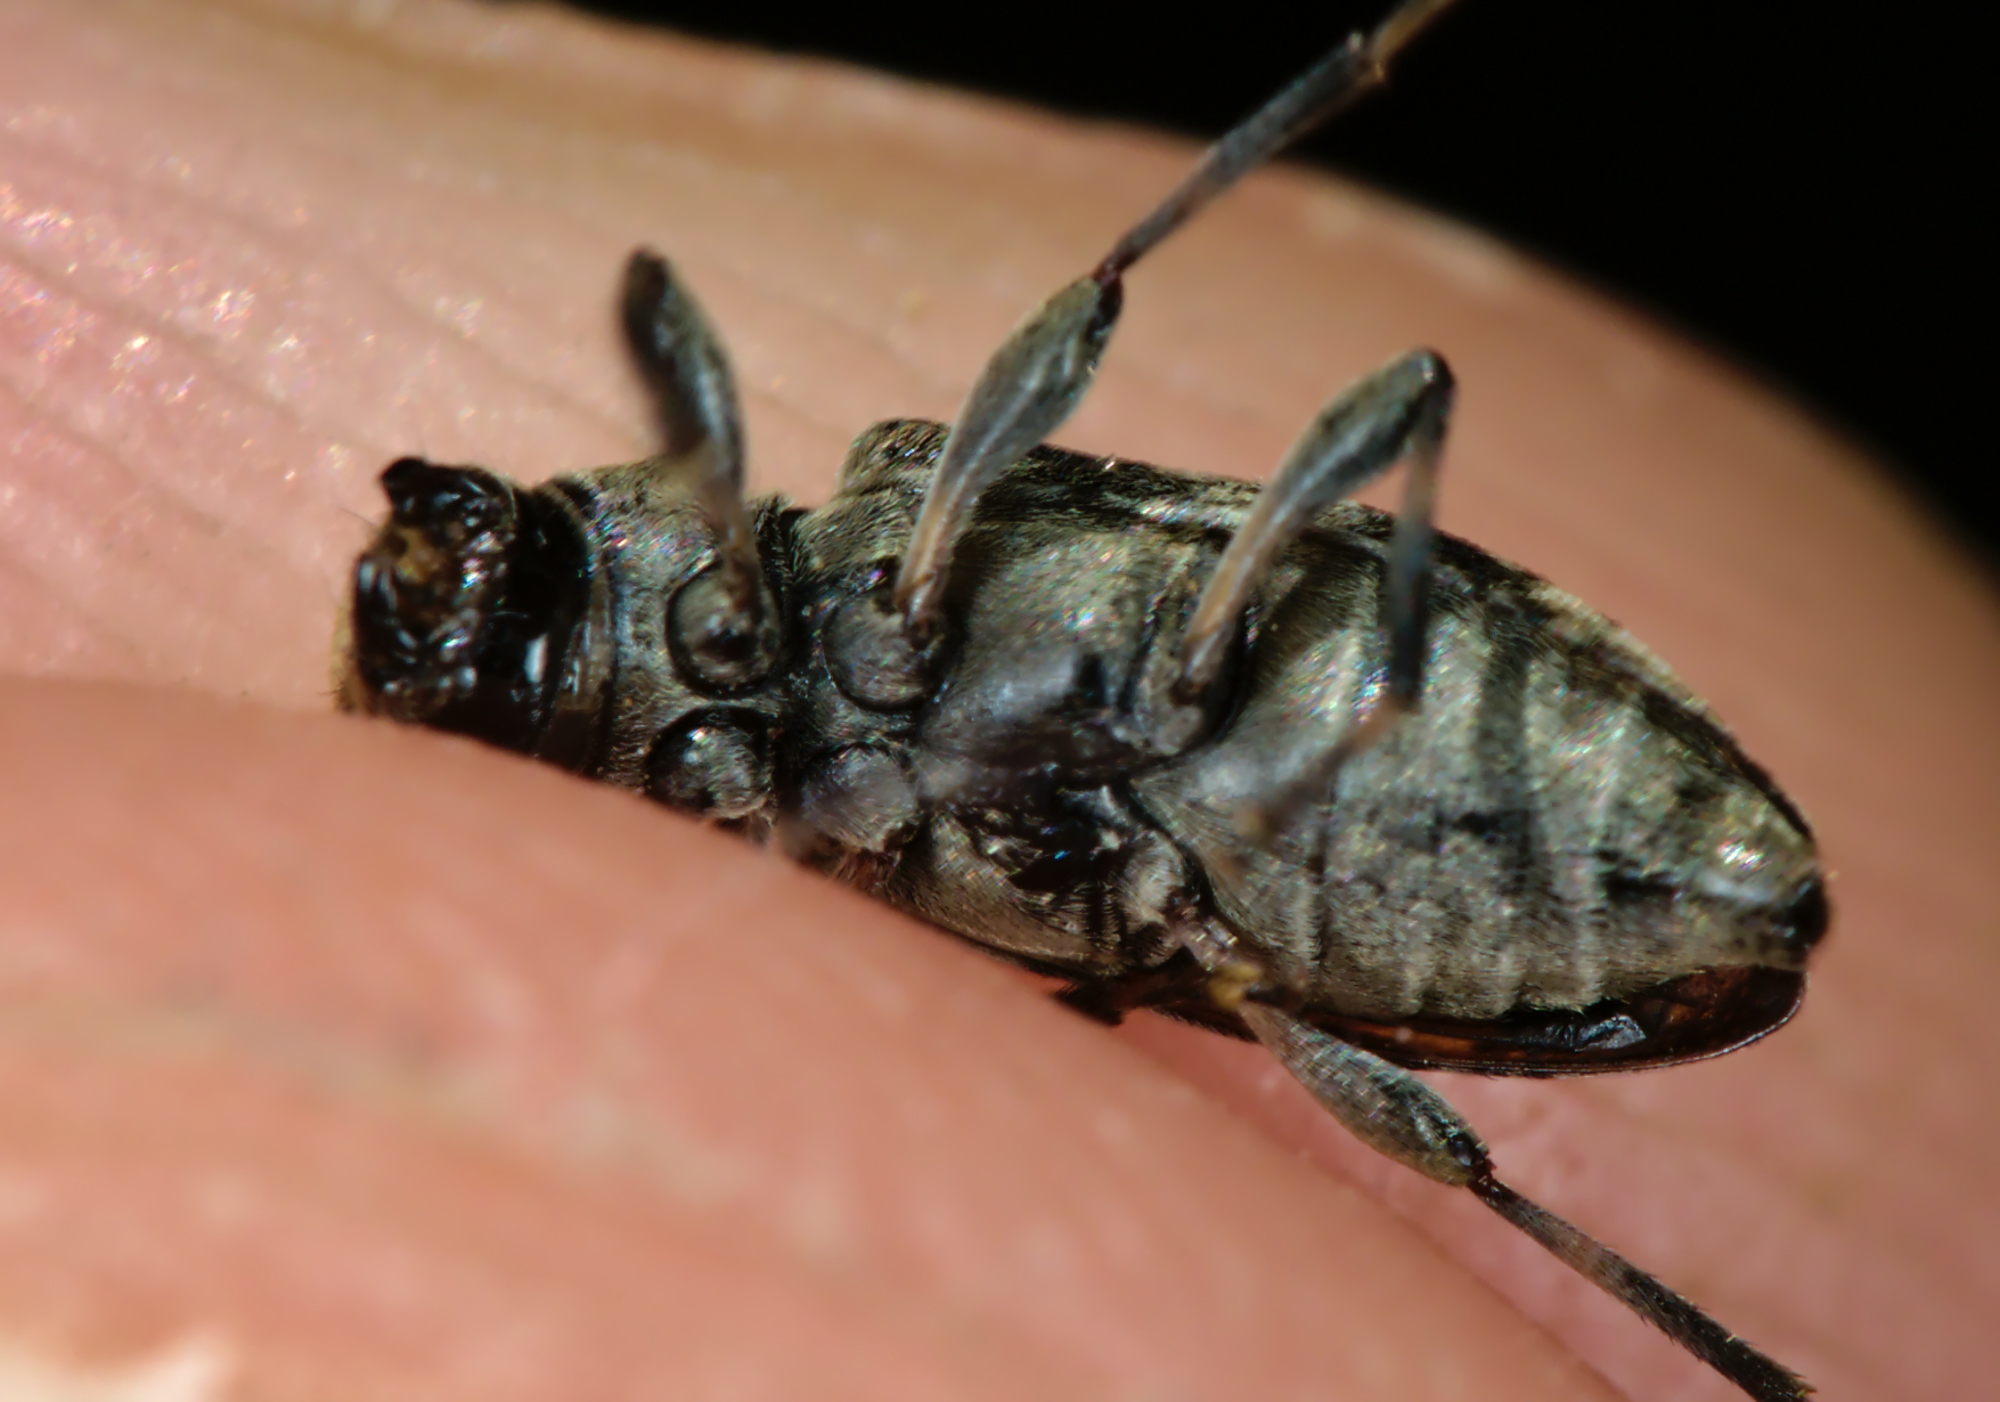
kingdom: Animalia
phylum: Arthropoda
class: Insecta
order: Coleoptera
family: Cerambycidae
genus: Leiopus
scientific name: Leiopus femoratus
